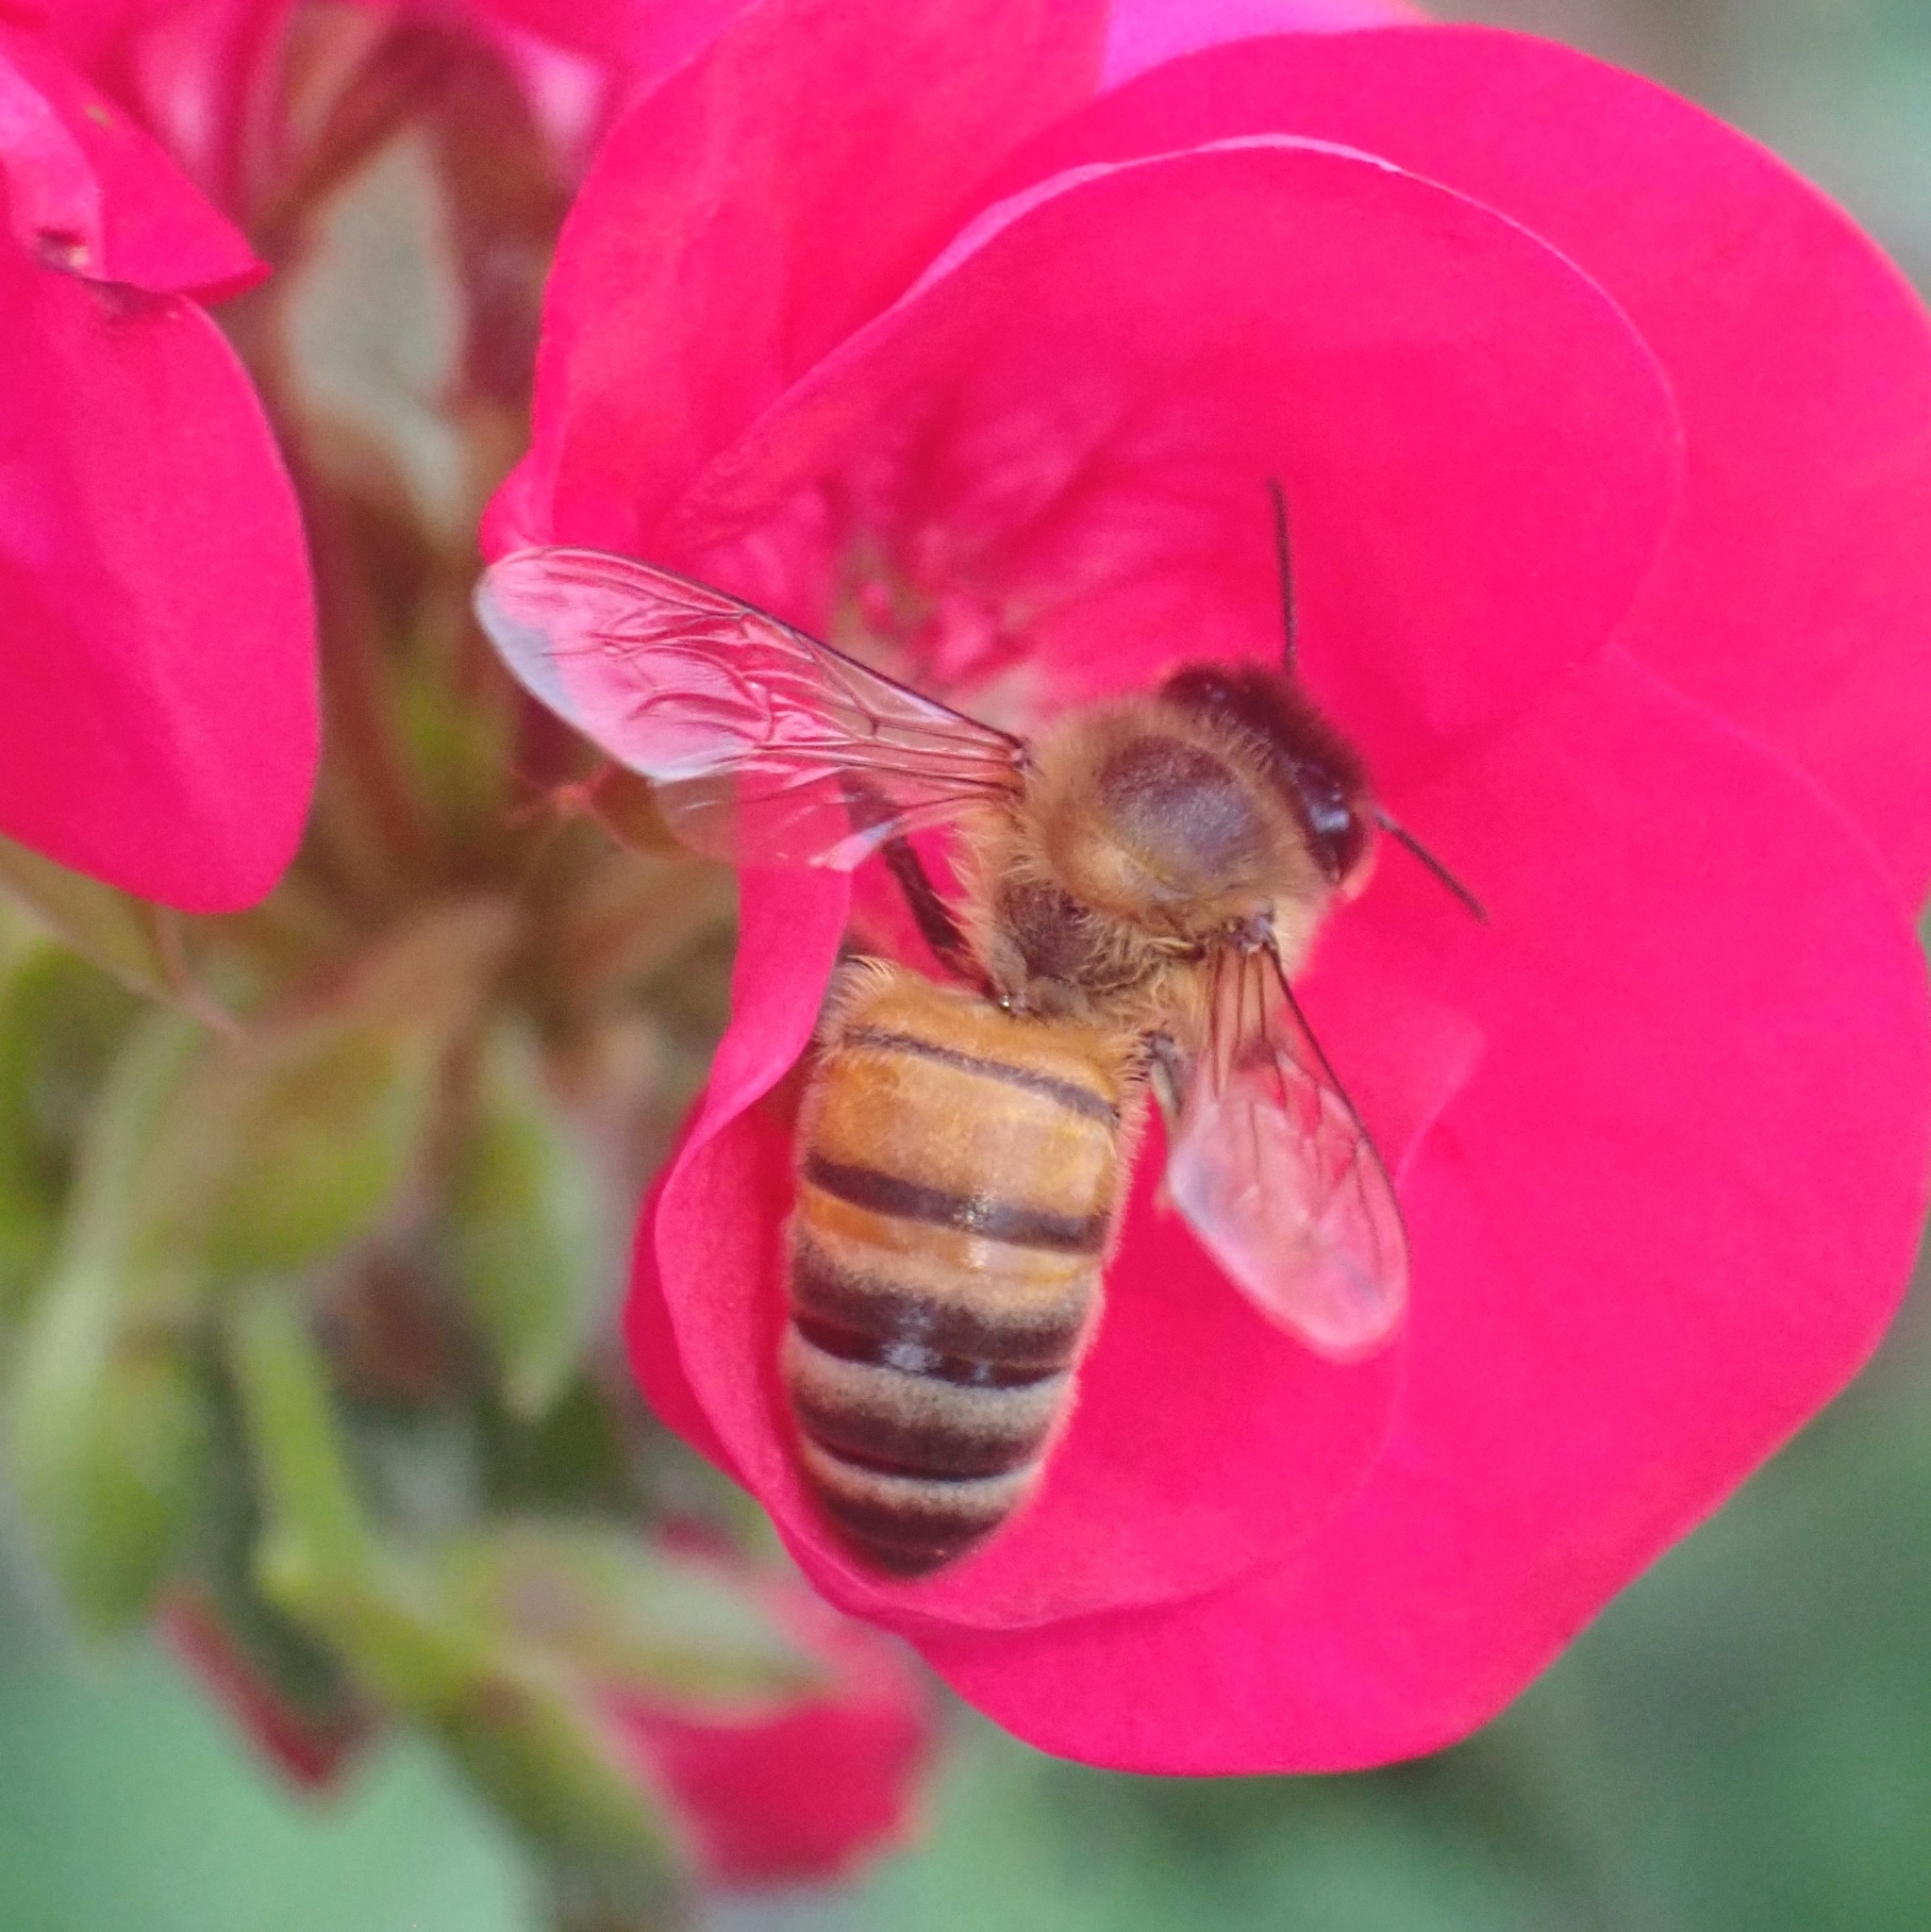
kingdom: Animalia
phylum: Arthropoda
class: Insecta
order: Hymenoptera
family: Apidae
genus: Apis
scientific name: Apis mellifera
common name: Honey bee
